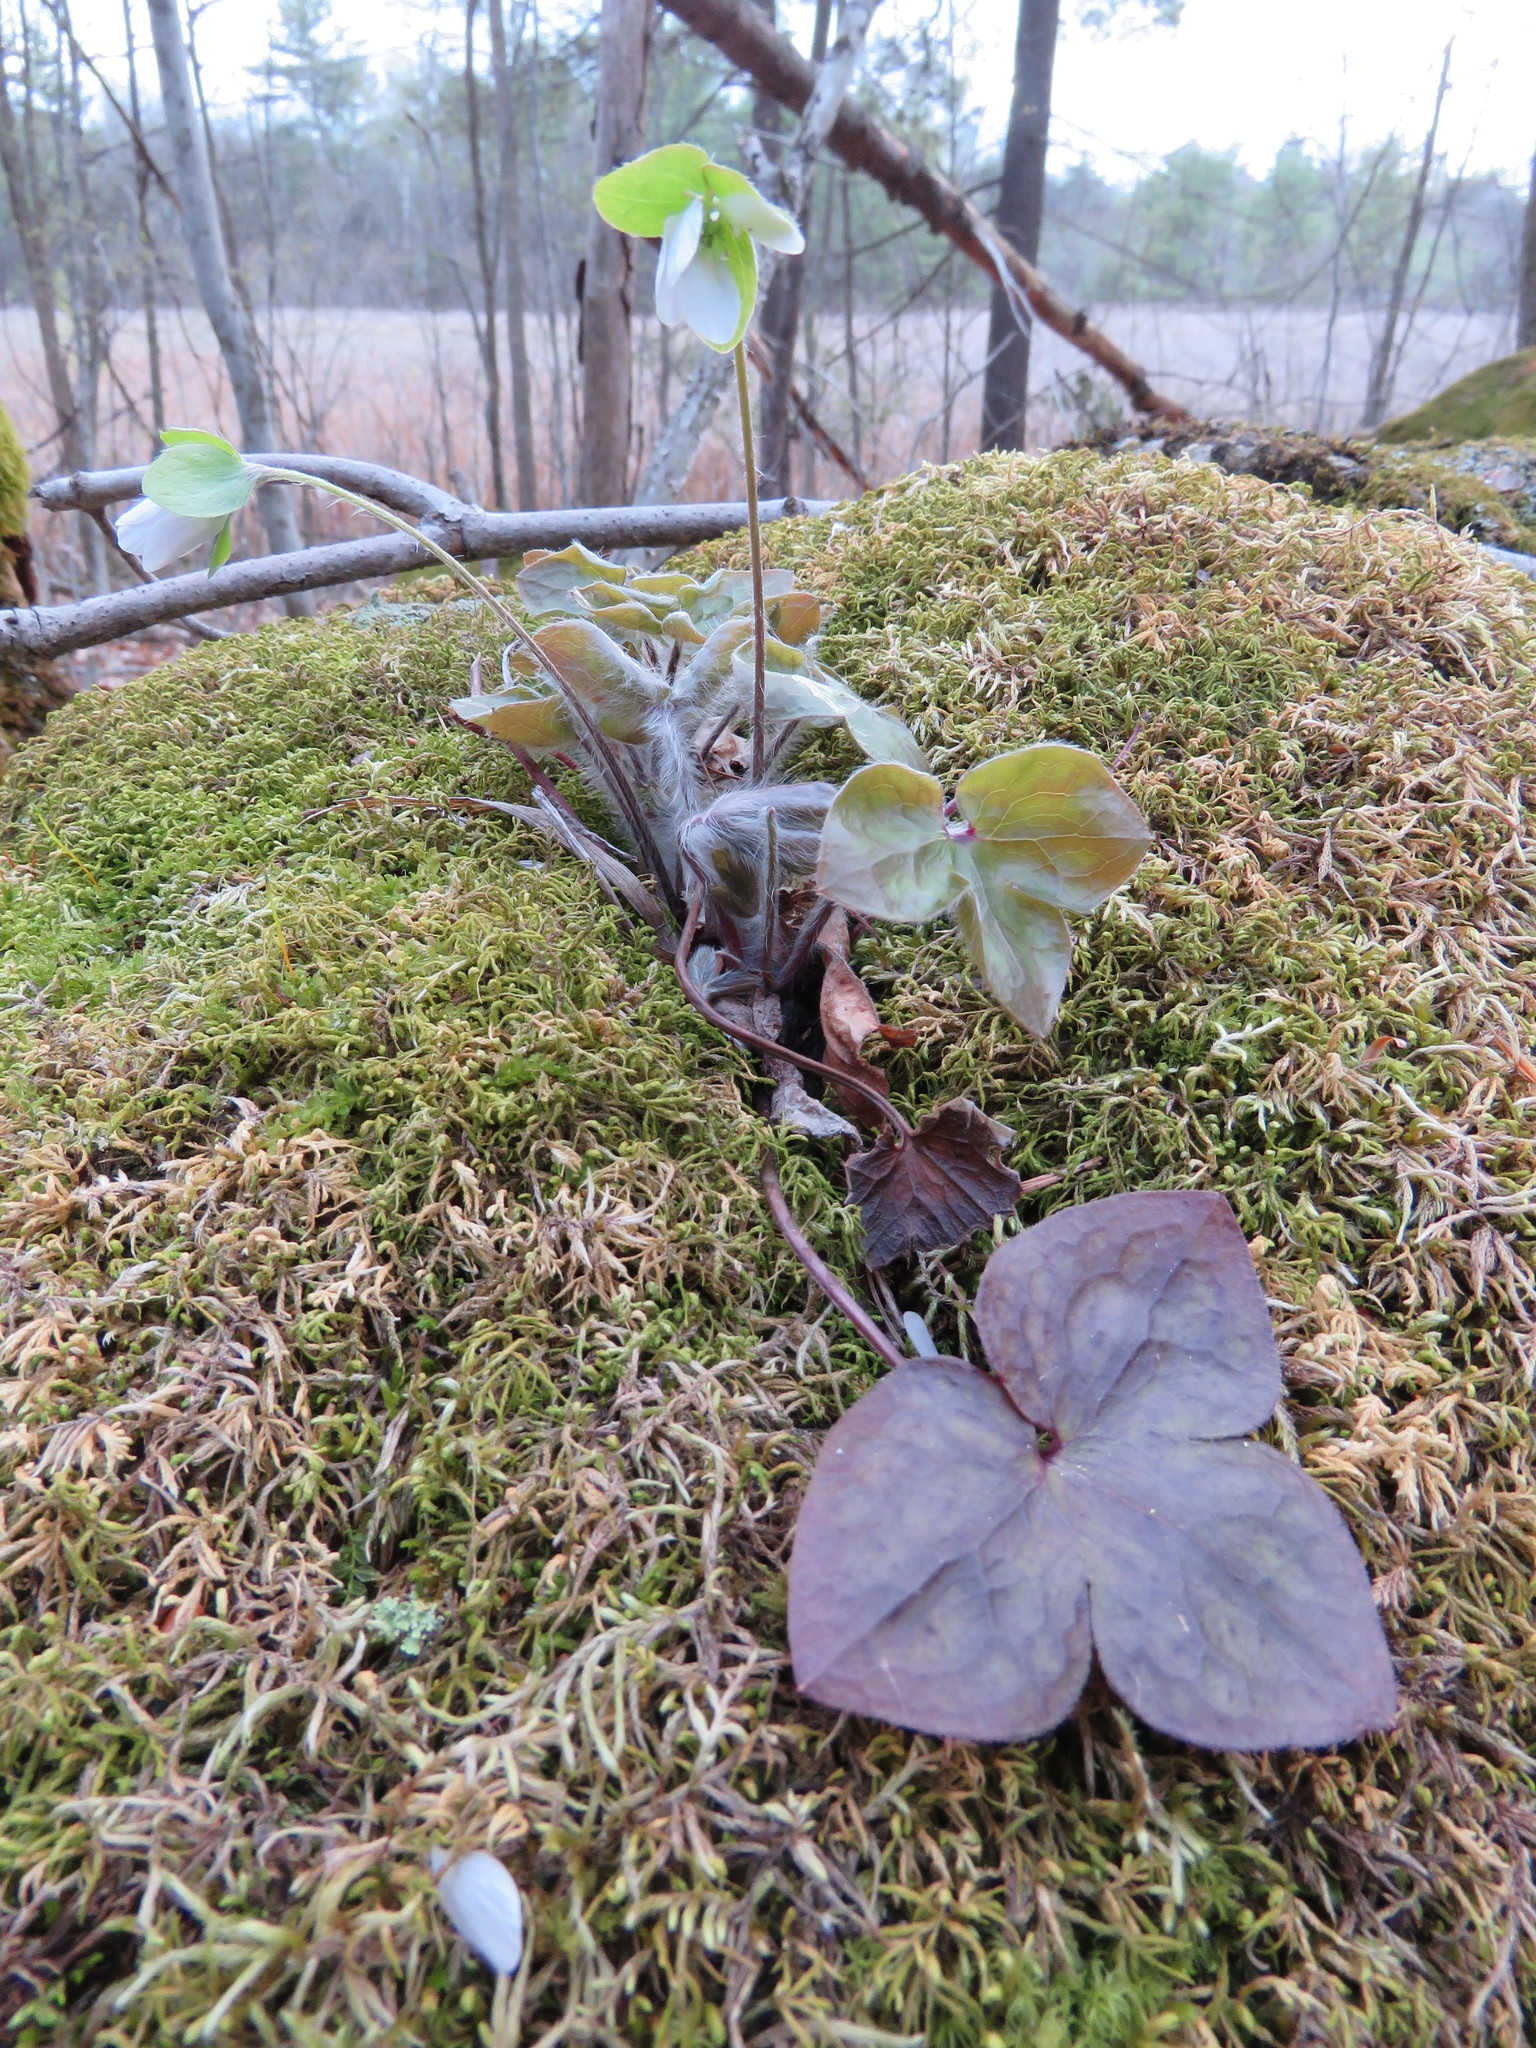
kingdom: Plantae
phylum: Tracheophyta
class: Magnoliopsida
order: Ranunculales
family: Ranunculaceae
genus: Hepatica
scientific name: Hepatica acutiloba
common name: Sharp-lobed hepatica
